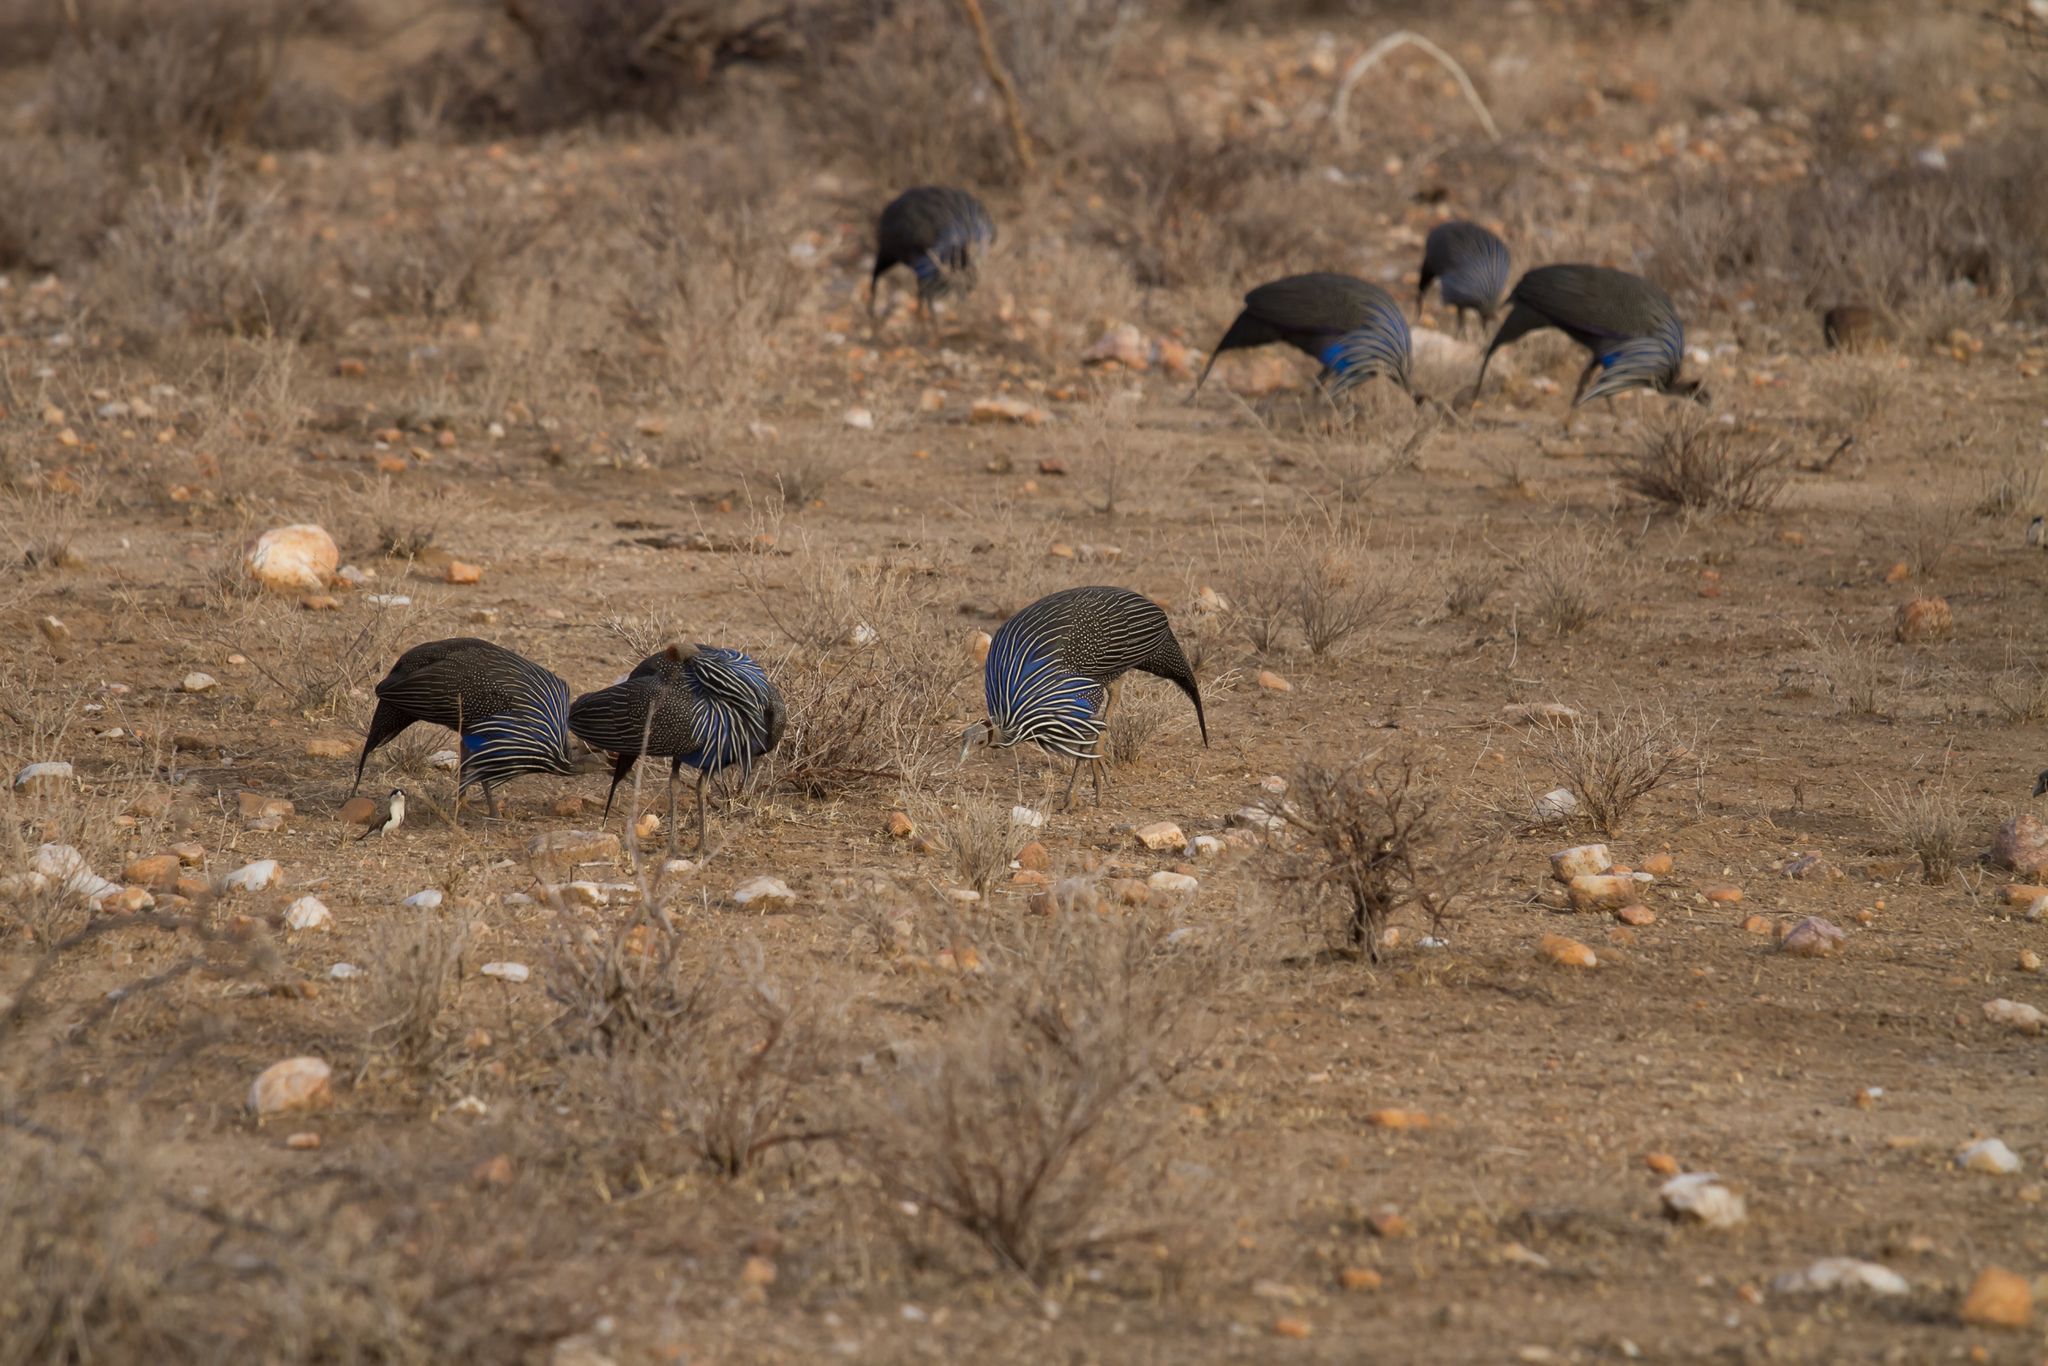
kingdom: Animalia
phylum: Chordata
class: Aves
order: Galliformes
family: Numididae
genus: Acryllium
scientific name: Acryllium vulturinum
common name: Vulturine guineafowl
